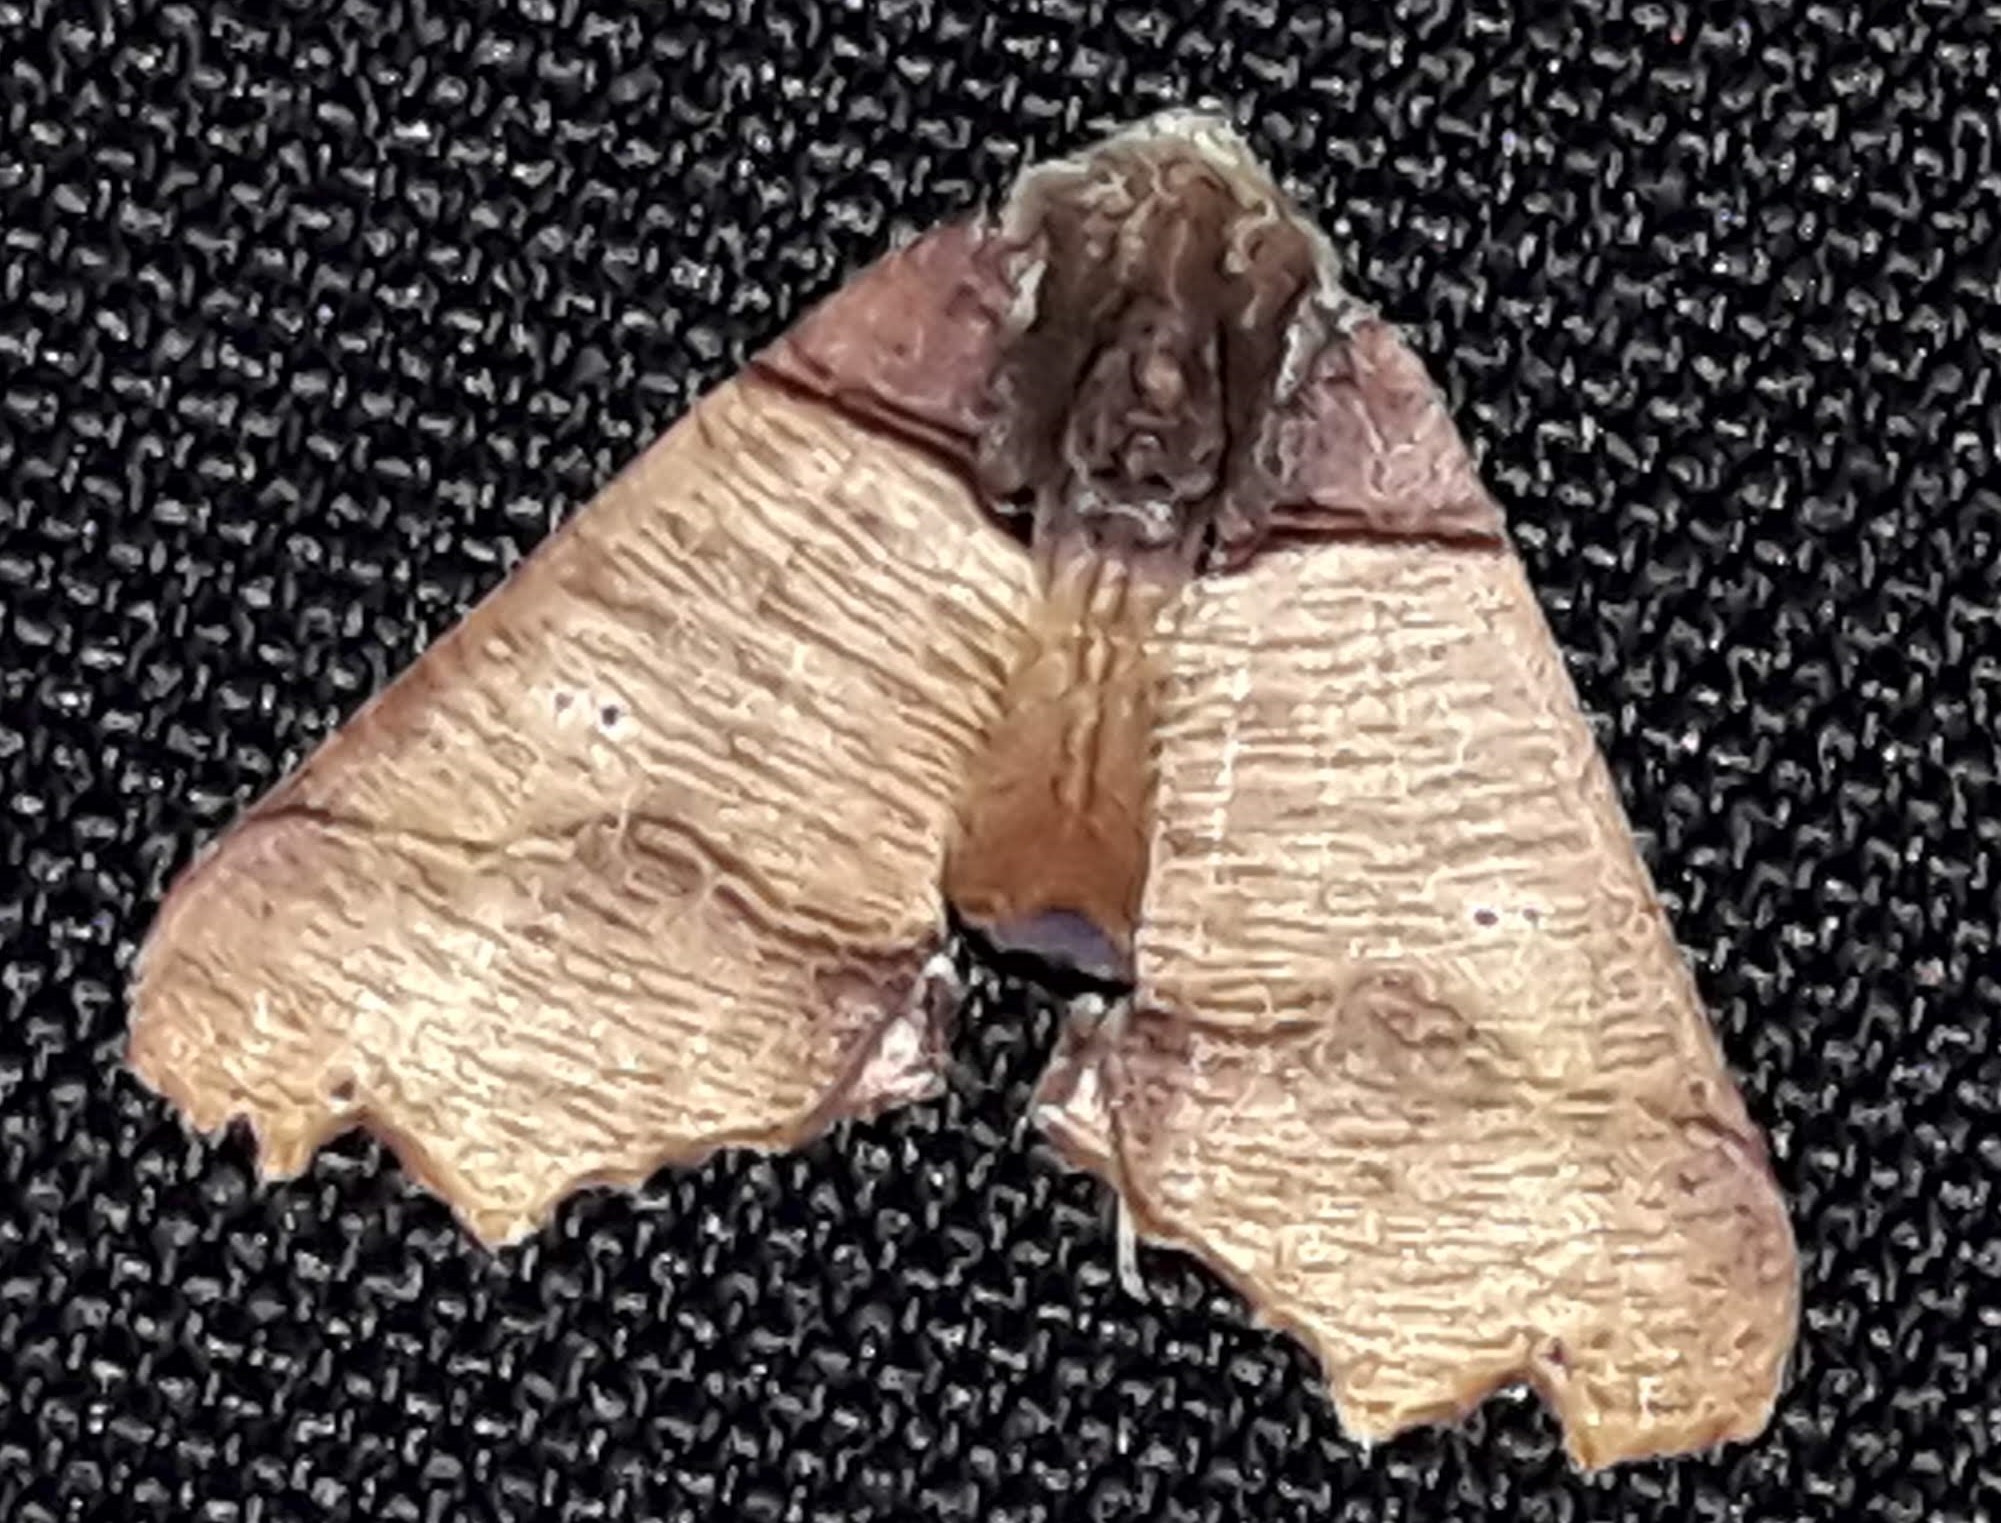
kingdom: Animalia
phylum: Arthropoda
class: Insecta
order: Lepidoptera
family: Geometridae
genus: Pero
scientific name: Pero polygonaria
